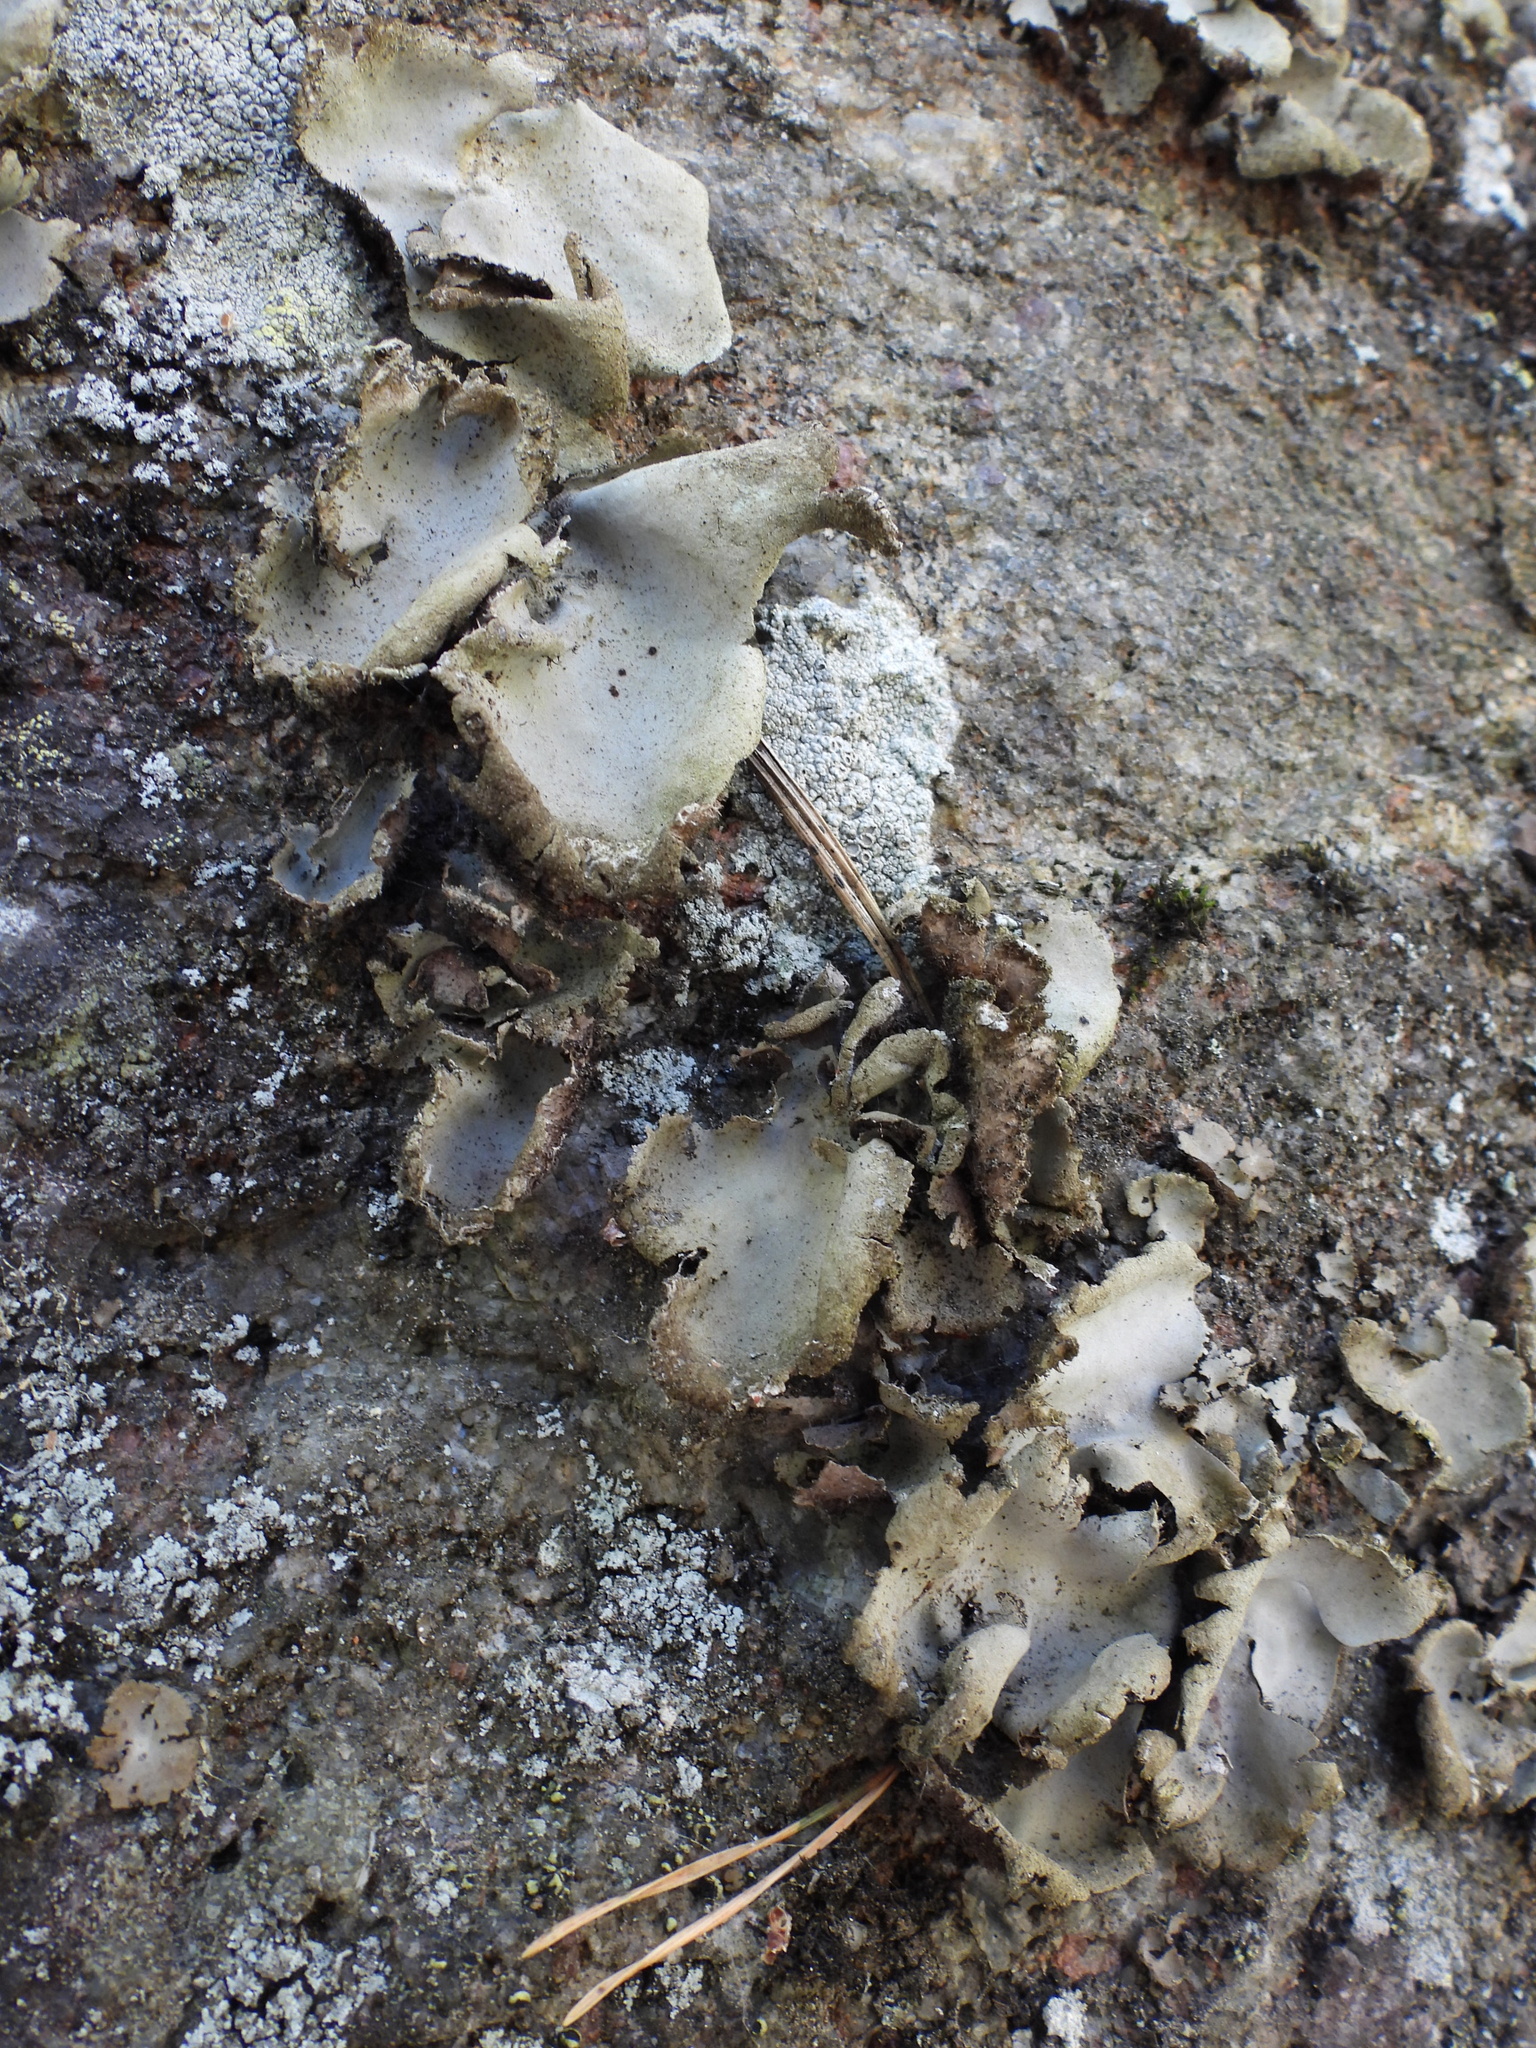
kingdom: Fungi
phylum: Ascomycota
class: Lecanoromycetes
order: Umbilicariales
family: Umbilicariaceae
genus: Umbilicaria
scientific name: Umbilicaria hirsuta
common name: Granulating rocktripe lichen
